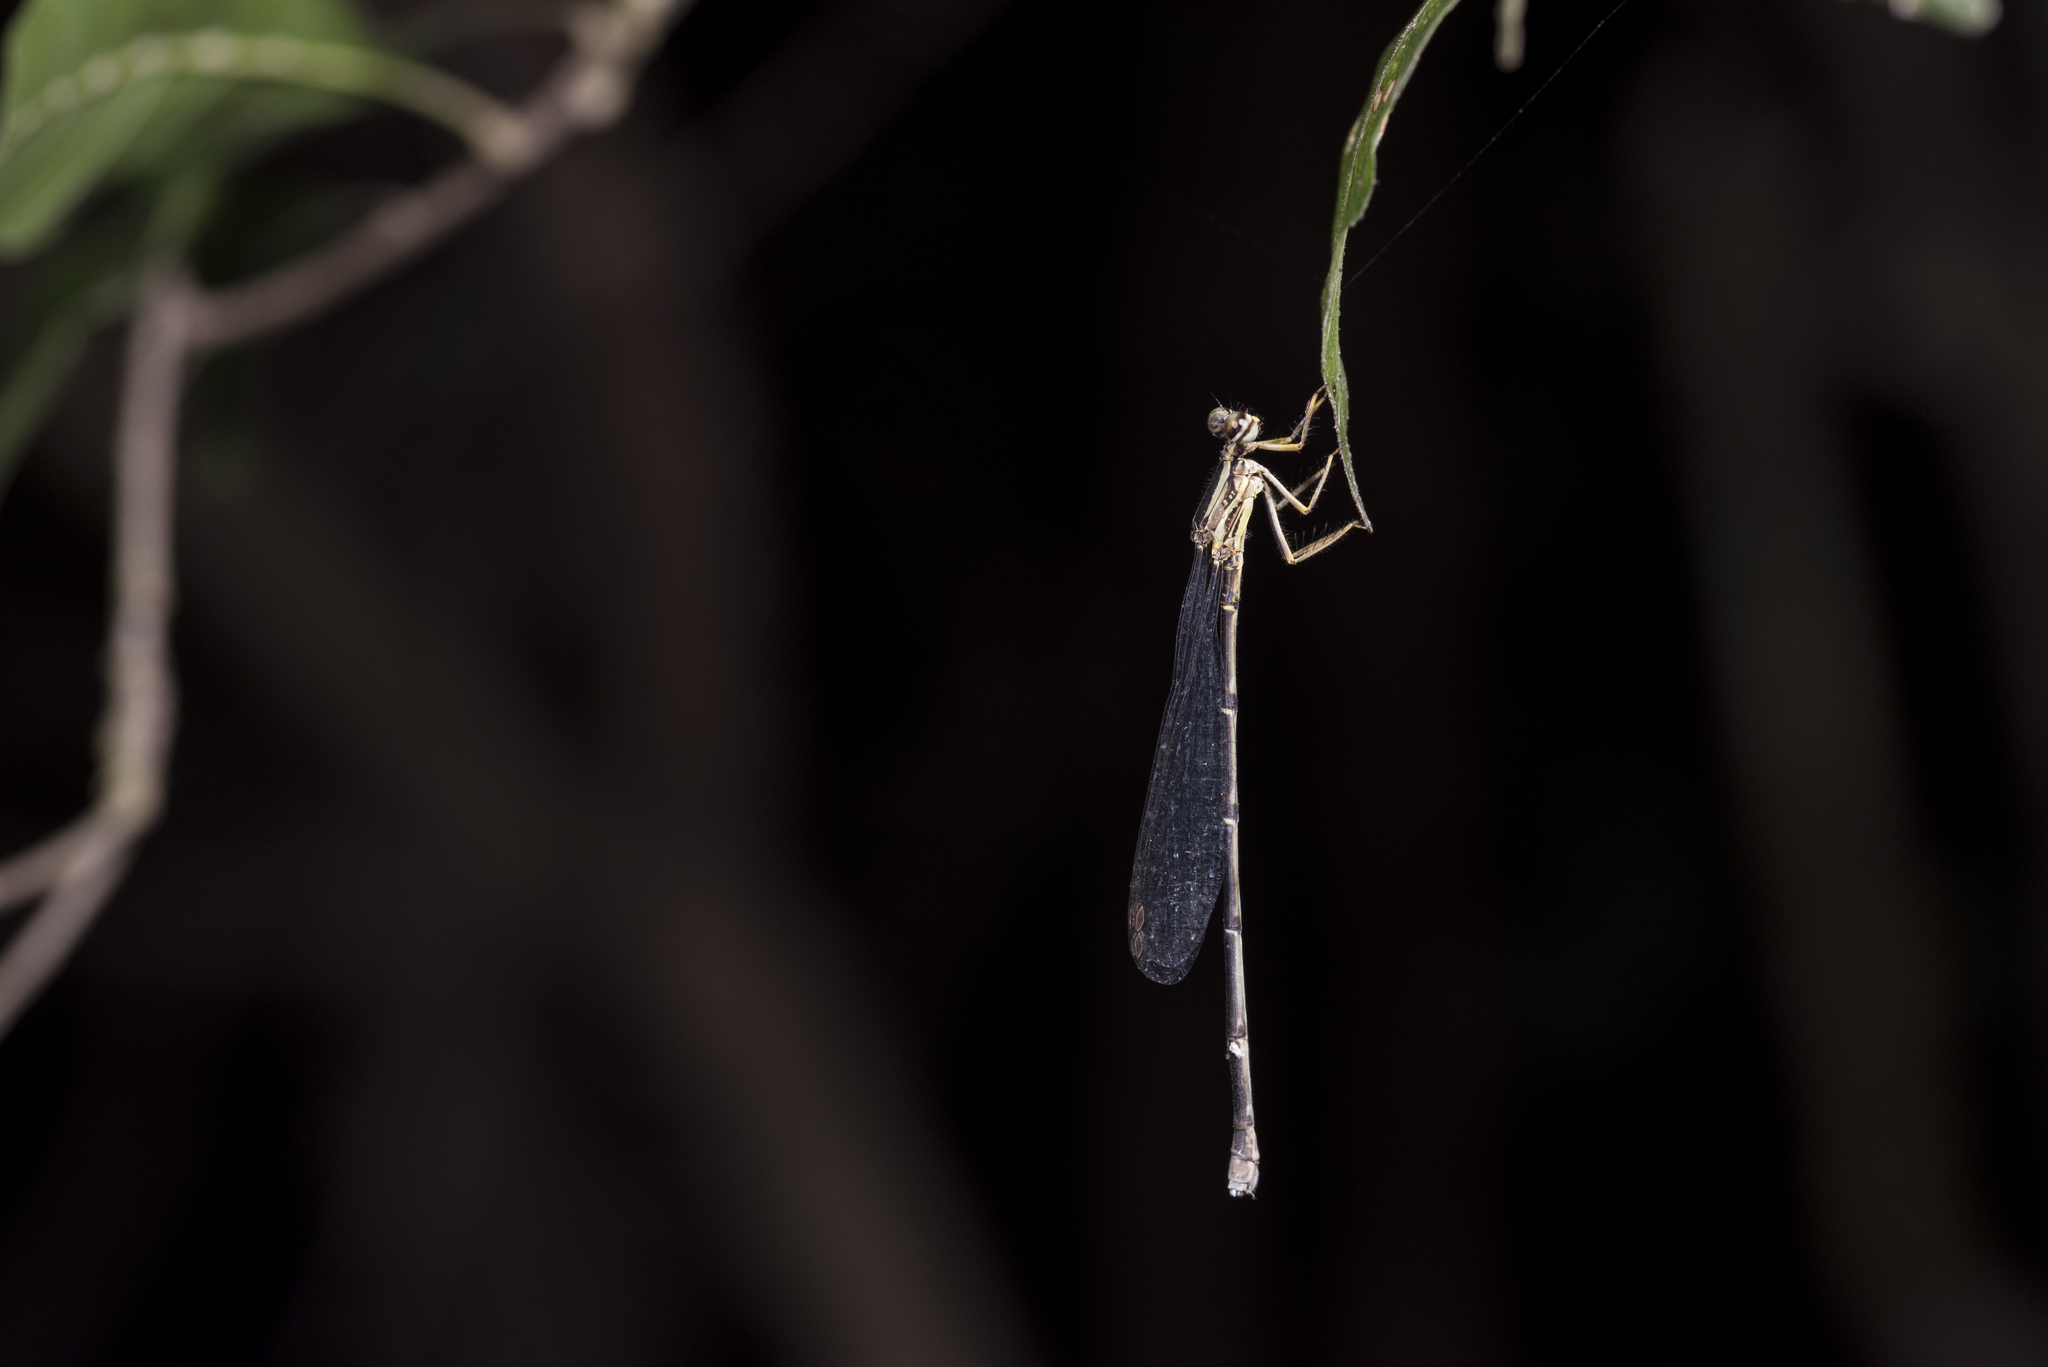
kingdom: Animalia
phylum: Arthropoda
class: Insecta
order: Odonata
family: Platycnemididae
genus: Copera
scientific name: Copera marginipes
